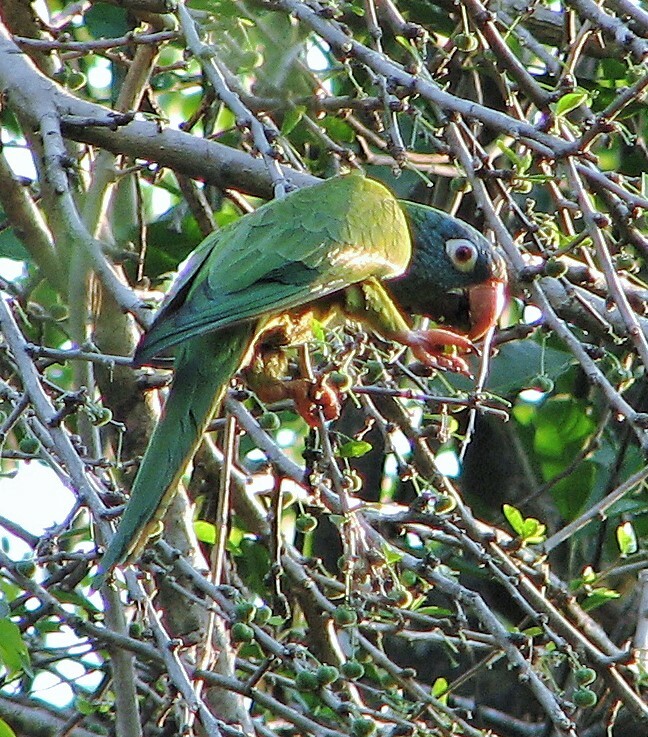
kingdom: Animalia
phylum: Chordata
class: Aves
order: Psittaciformes
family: Psittacidae
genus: Aratinga
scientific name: Aratinga acuticaudata
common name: Blue-crowned parakeet
